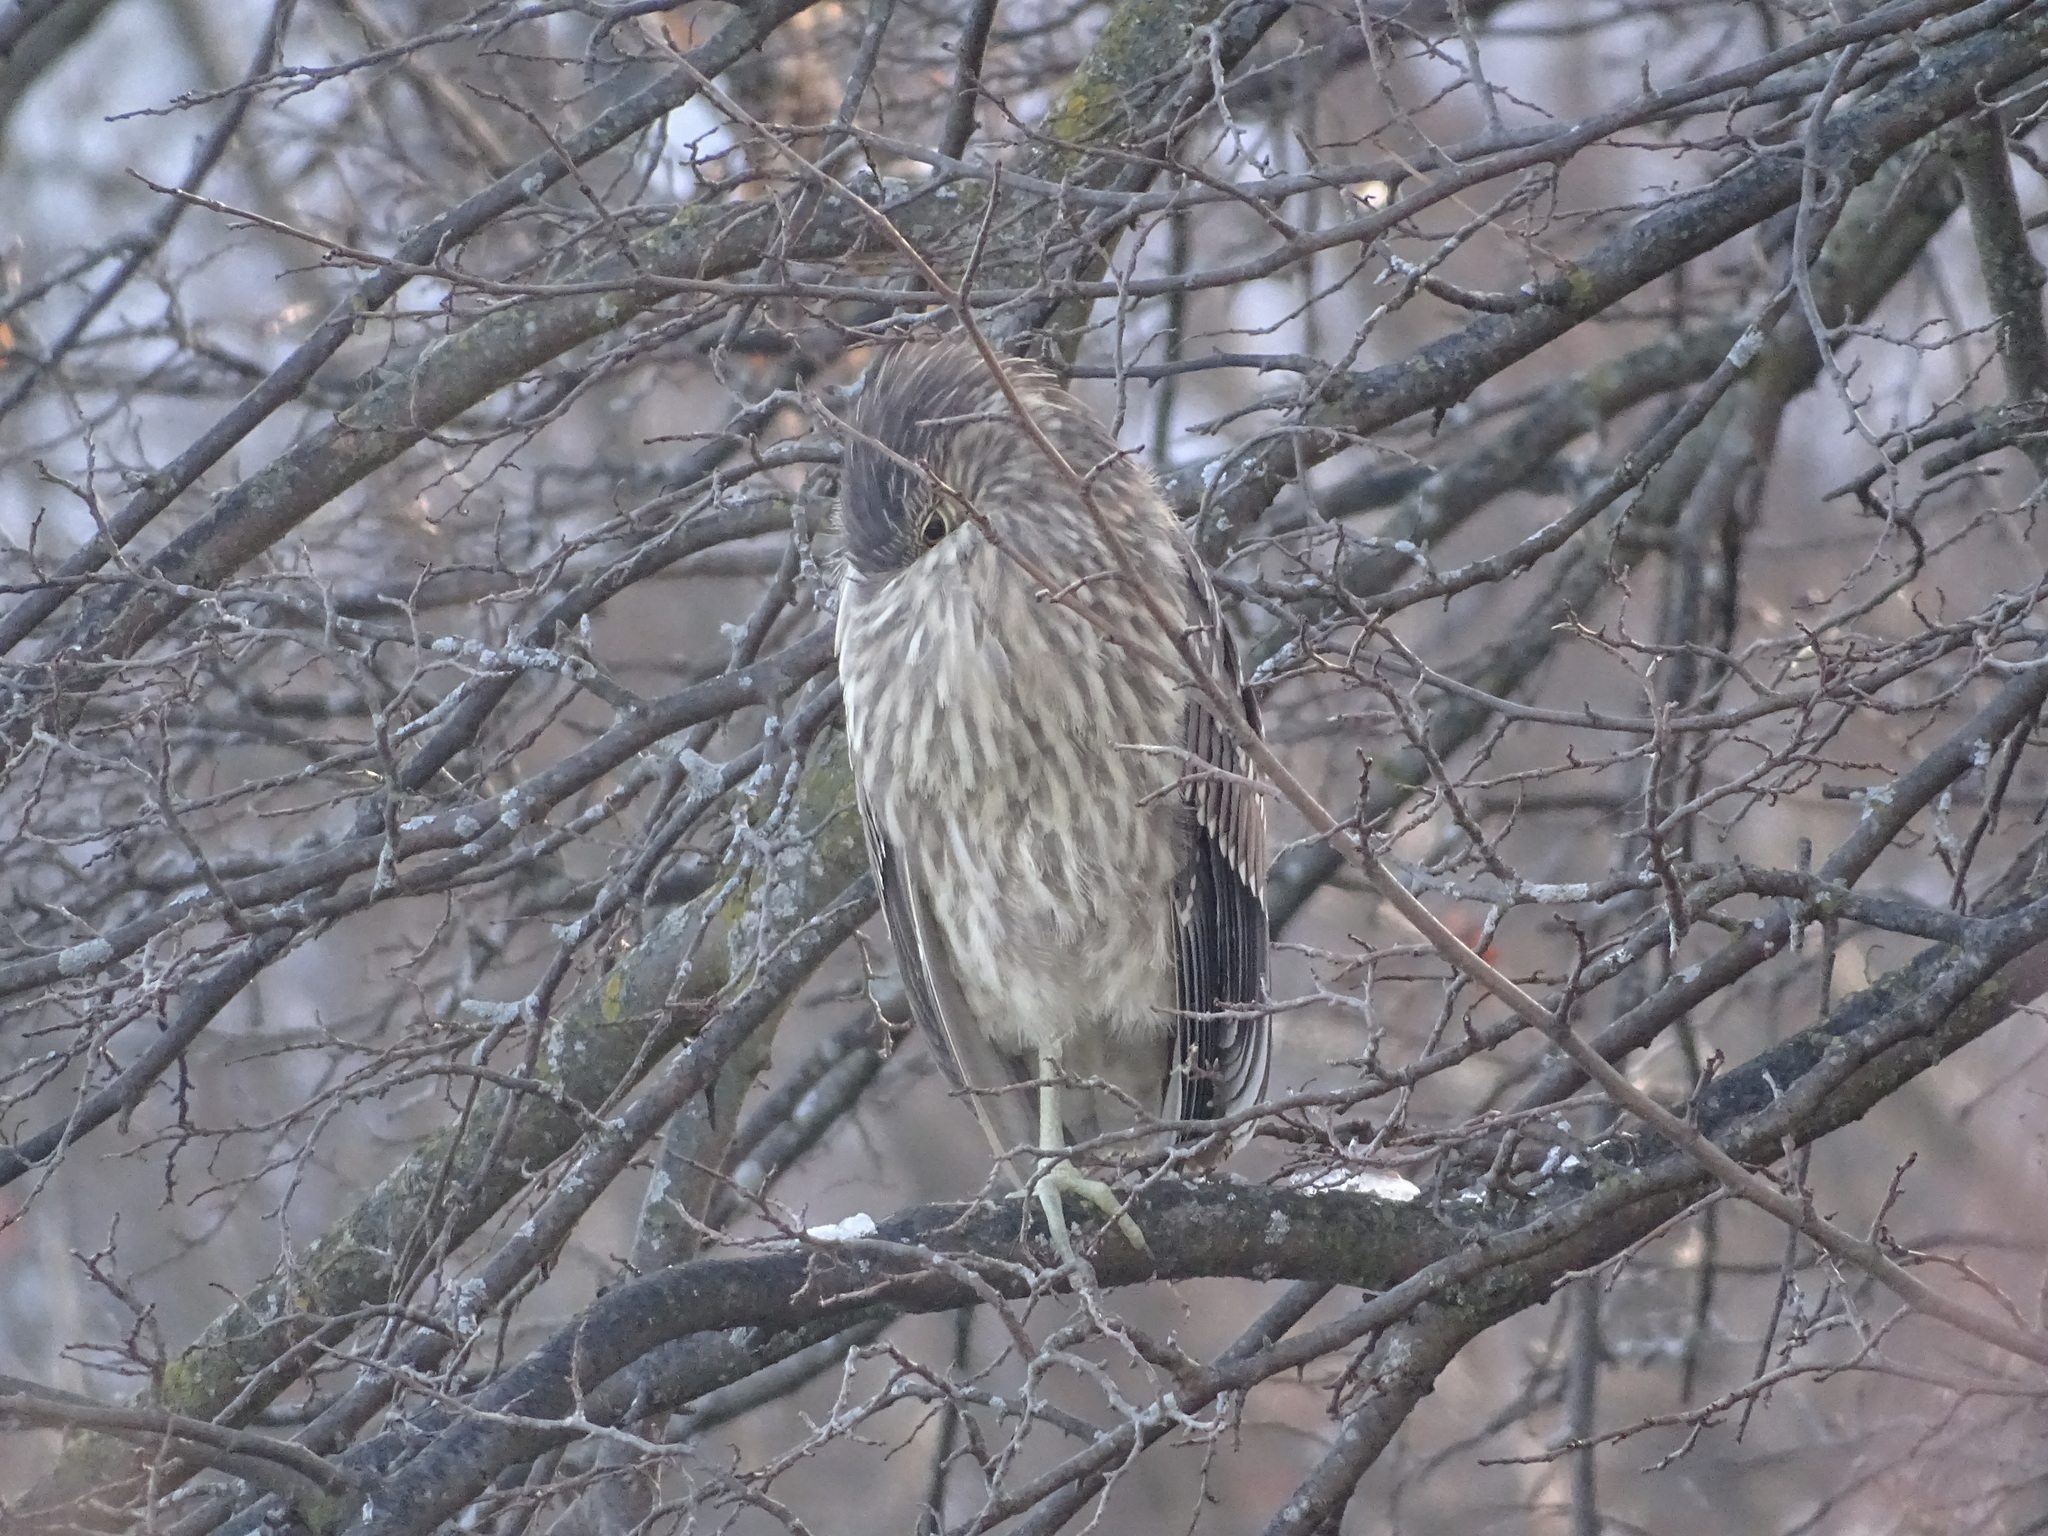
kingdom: Animalia
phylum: Chordata
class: Aves
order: Pelecaniformes
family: Ardeidae
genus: Nycticorax
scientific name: Nycticorax nycticorax
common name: Black-crowned night heron
